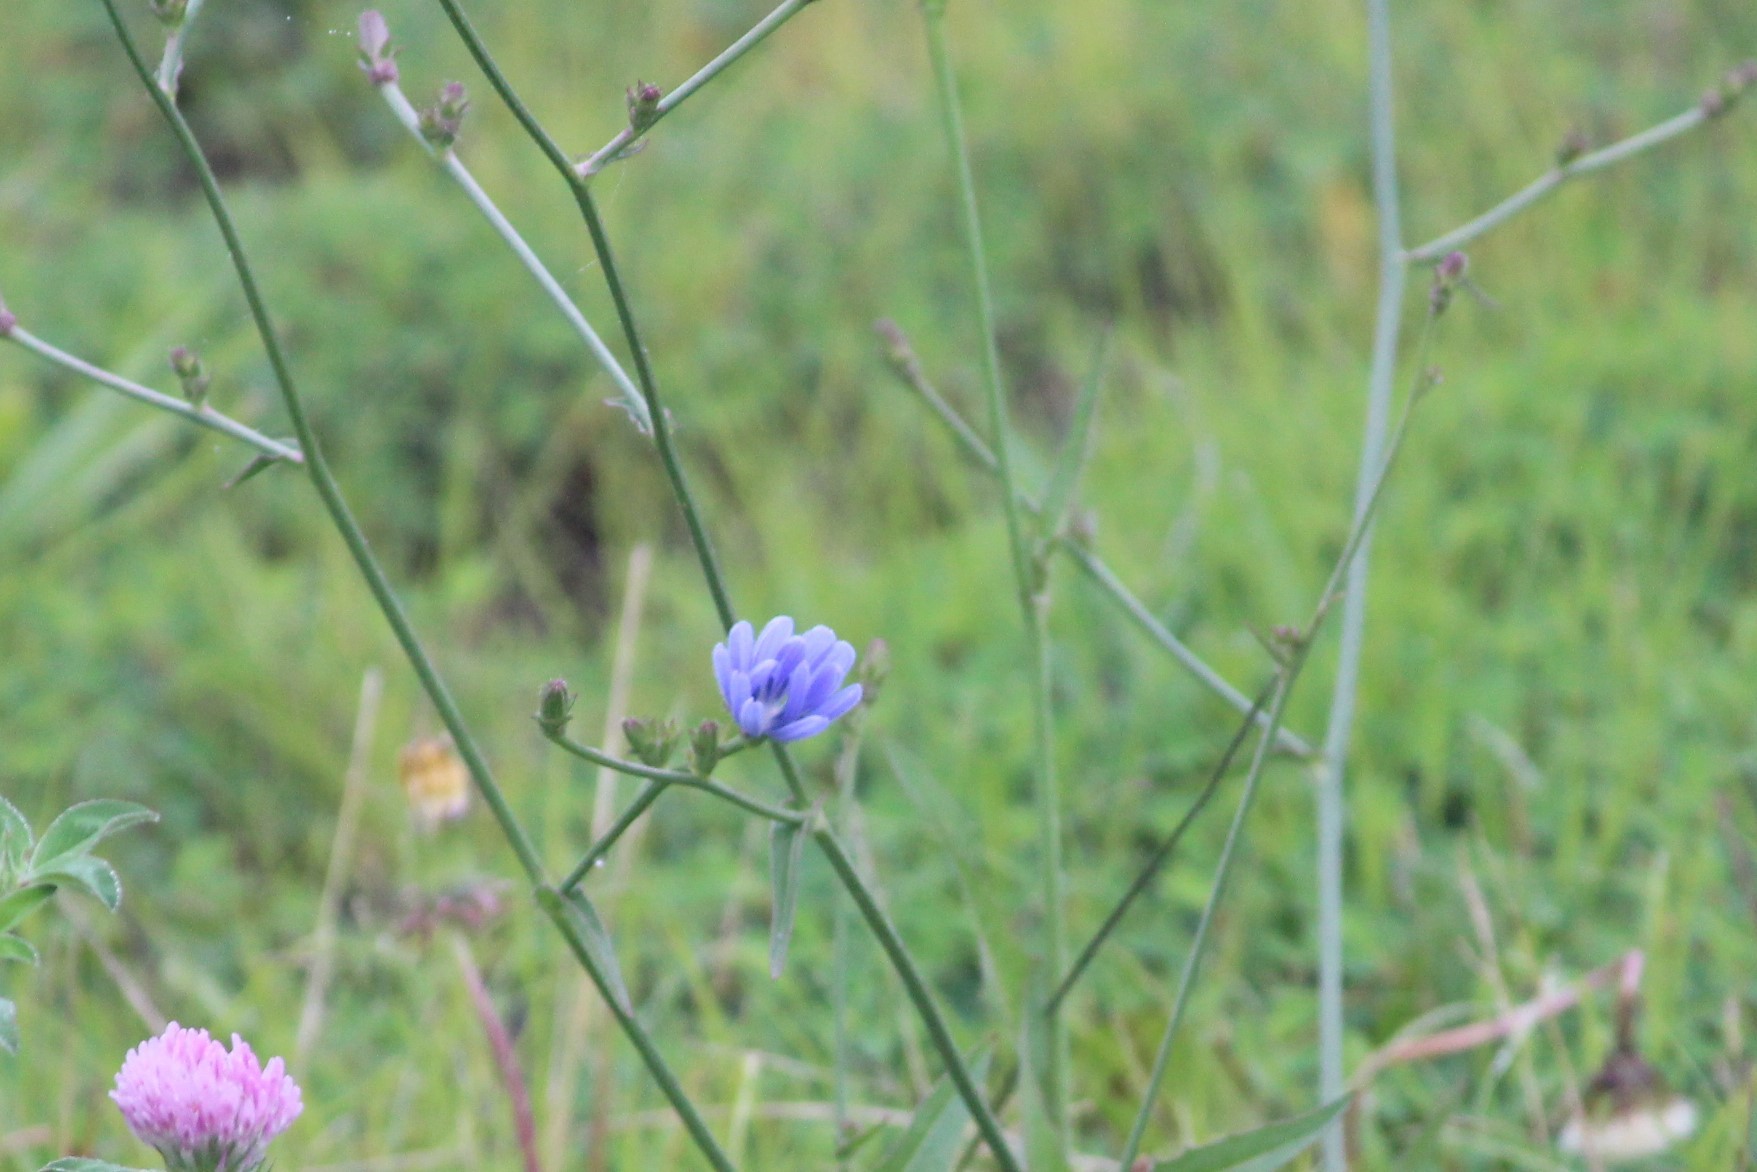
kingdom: Plantae
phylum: Tracheophyta
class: Magnoliopsida
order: Asterales
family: Asteraceae
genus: Cichorium
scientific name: Cichorium intybus
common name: Chicory
